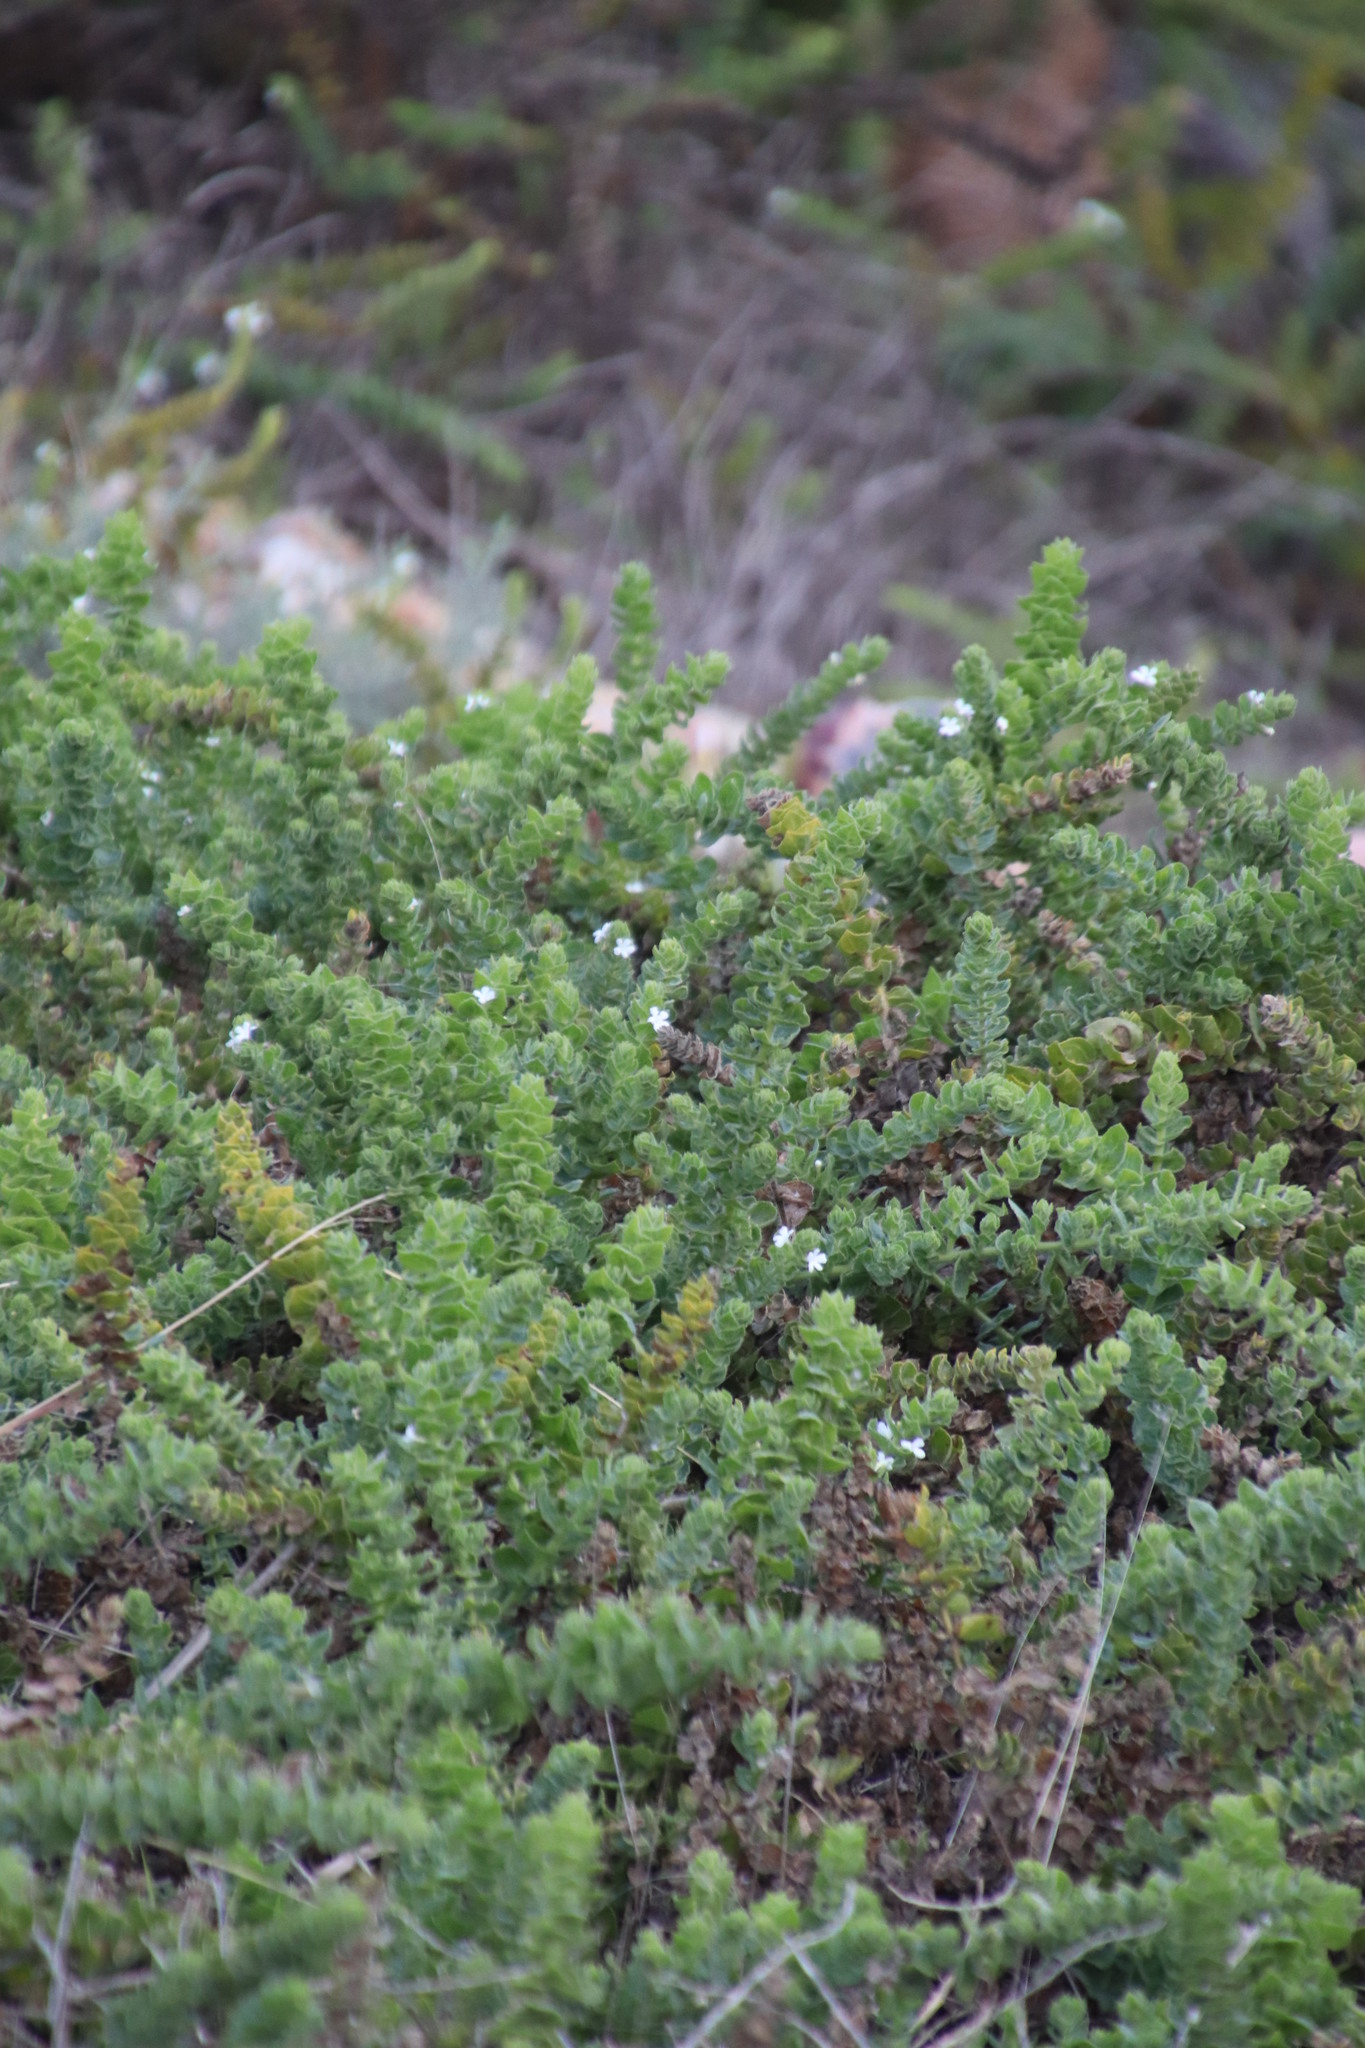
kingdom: Plantae
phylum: Tracheophyta
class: Magnoliopsida
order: Lamiales
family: Scrophulariaceae
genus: Oftia
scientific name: Oftia africana
